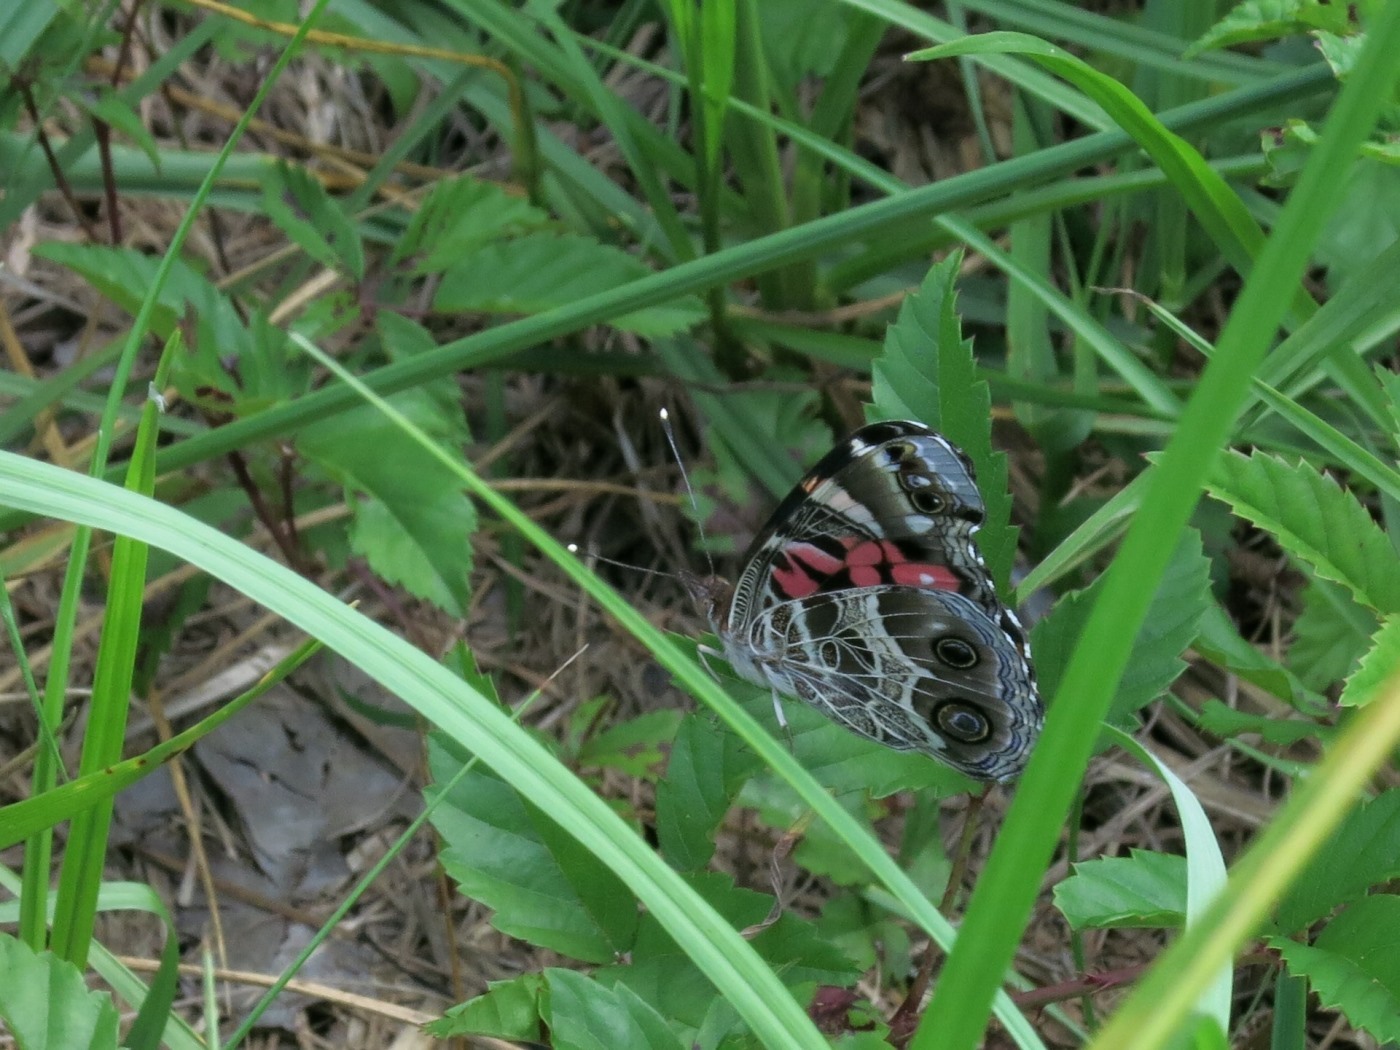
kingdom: Animalia
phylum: Arthropoda
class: Insecta
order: Lepidoptera
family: Nymphalidae
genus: Vanessa
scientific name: Vanessa virginiensis
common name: American lady
